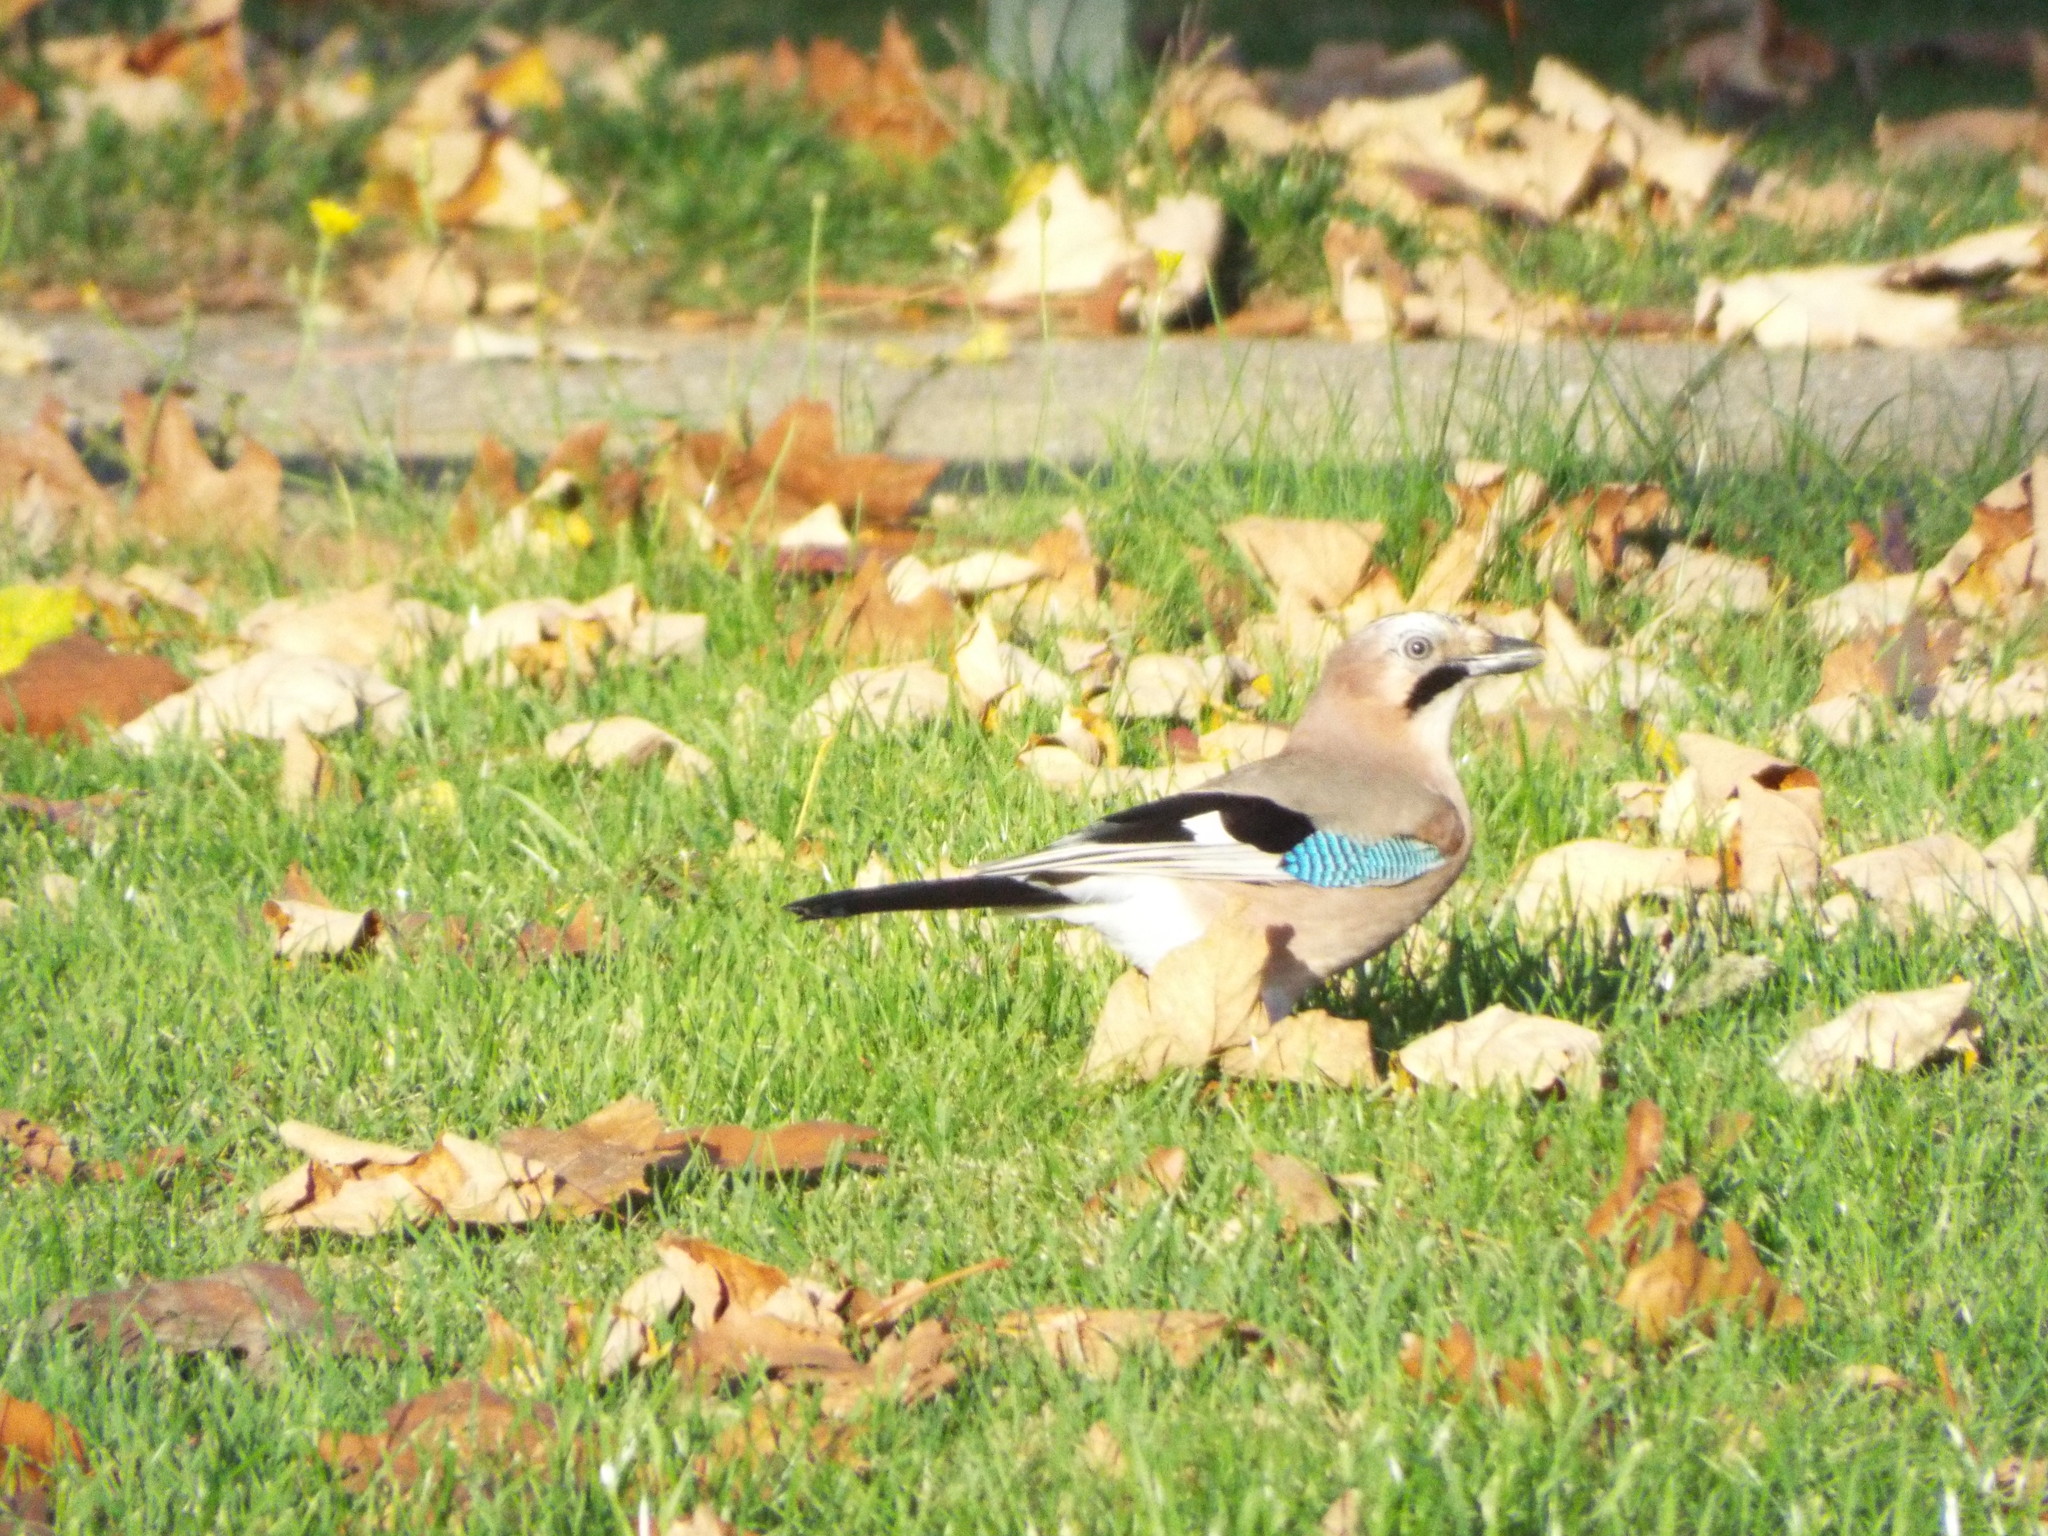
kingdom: Animalia
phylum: Chordata
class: Aves
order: Passeriformes
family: Corvidae
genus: Garrulus
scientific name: Garrulus glandarius
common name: Eurasian jay
